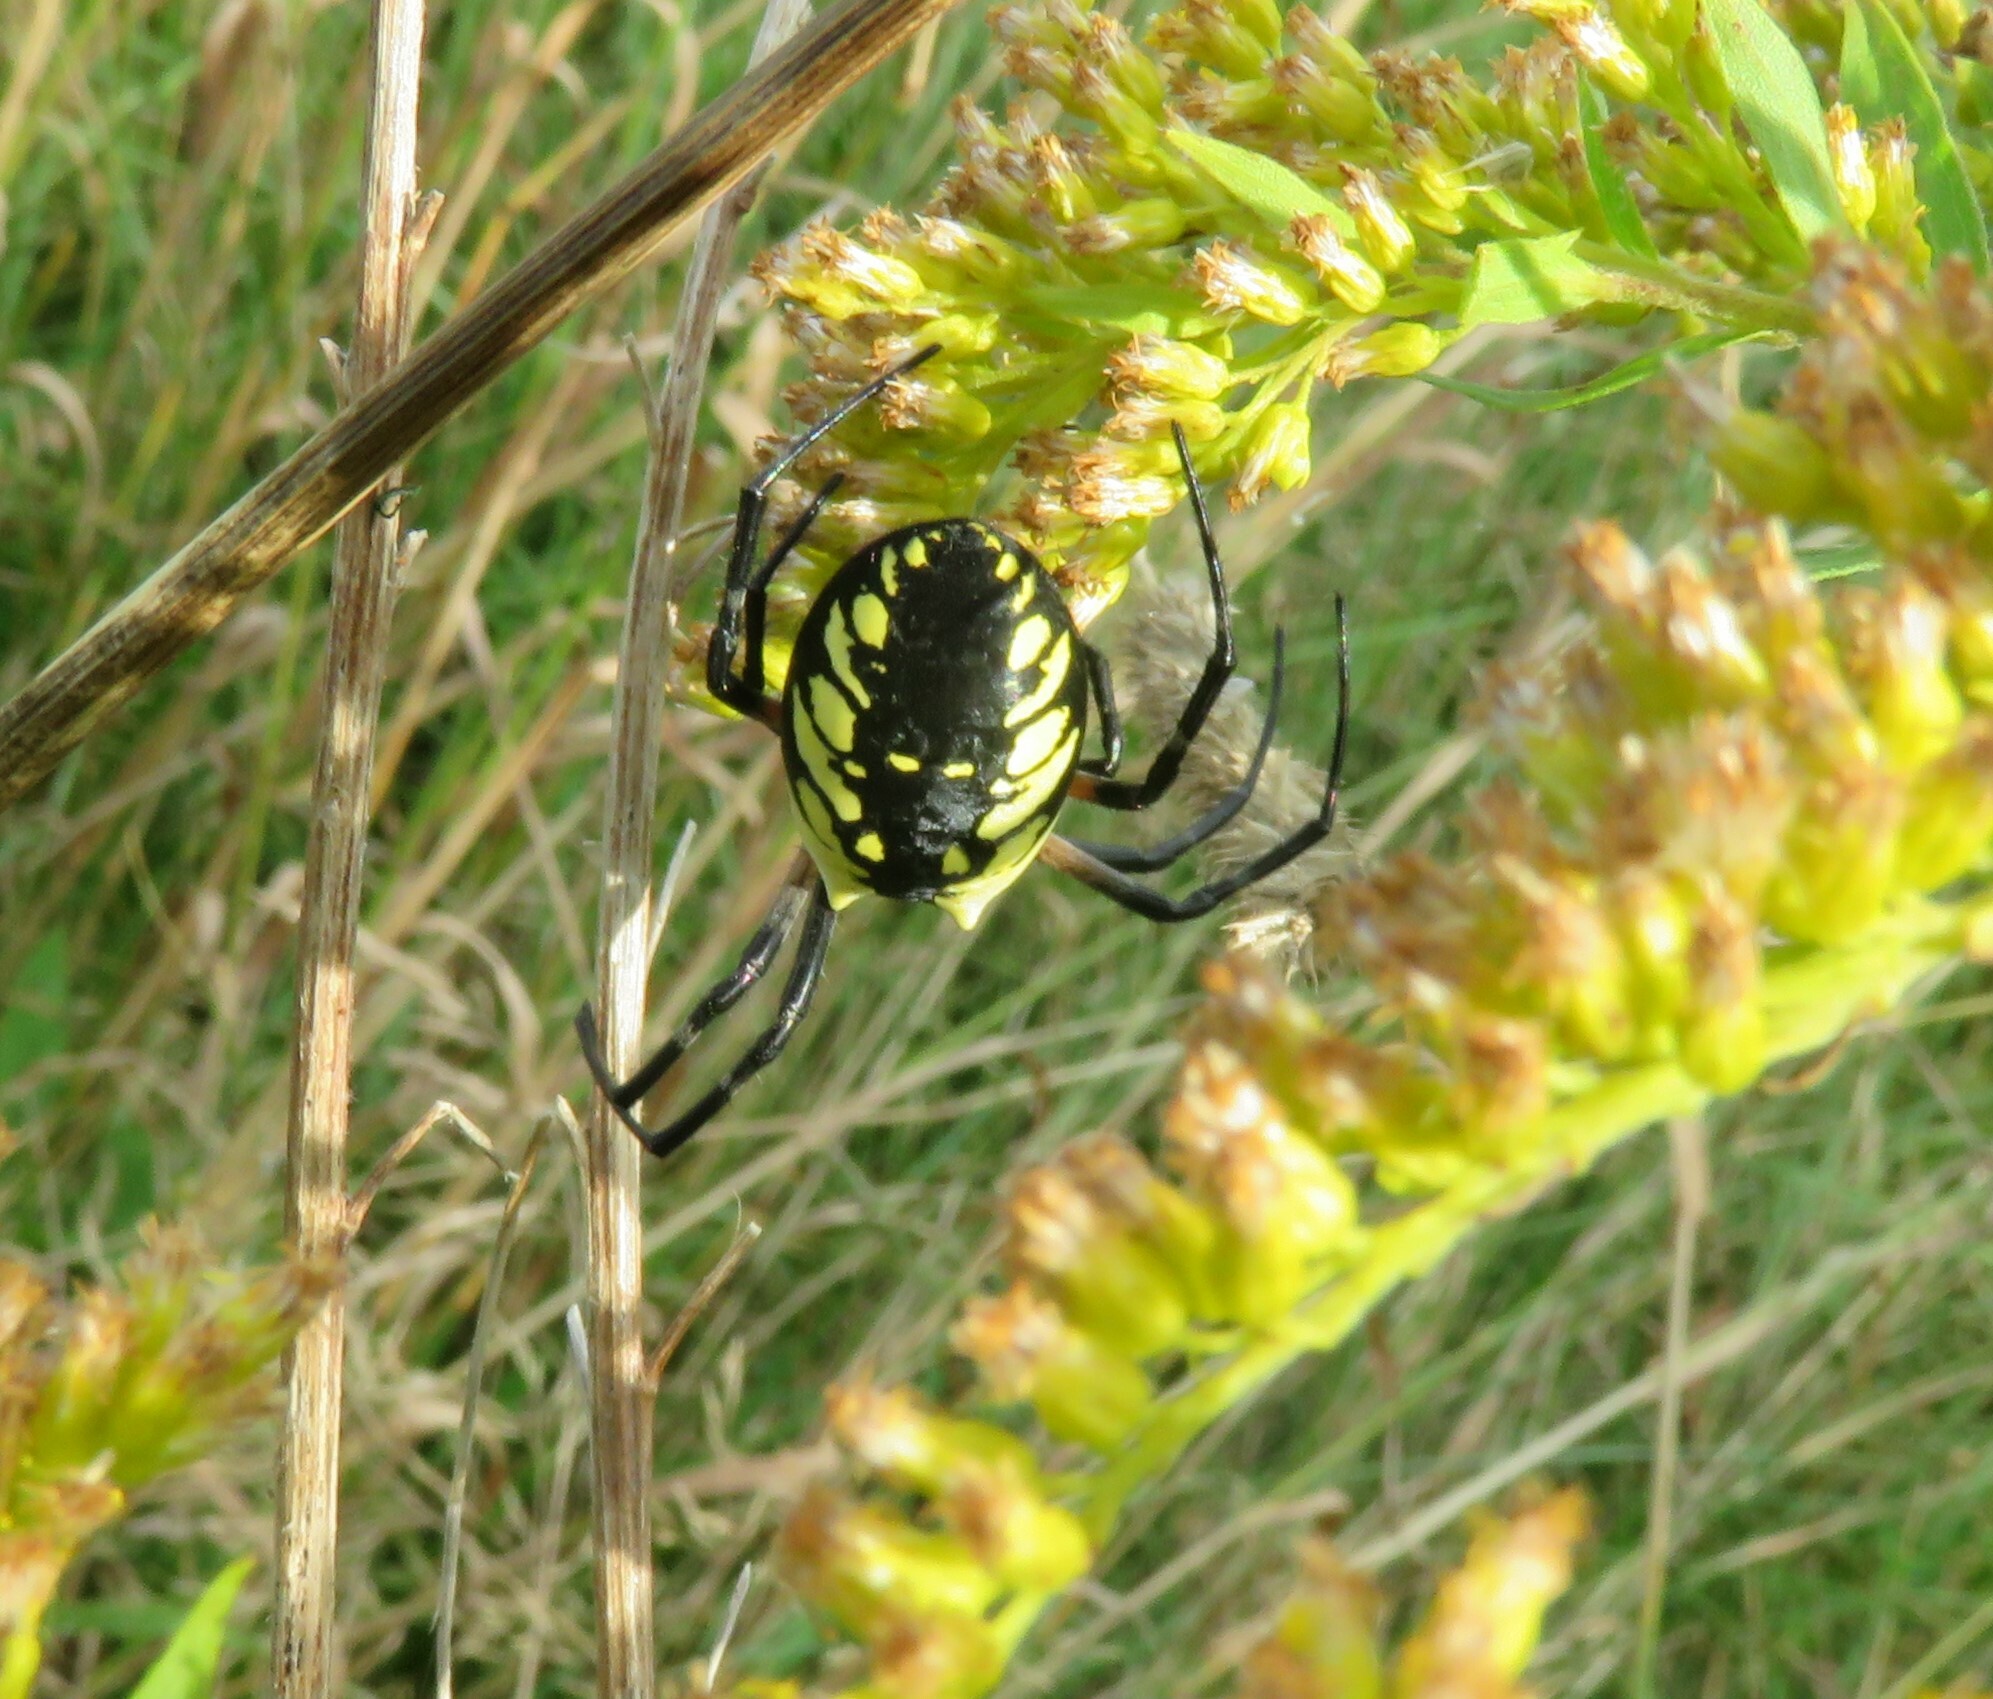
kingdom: Animalia
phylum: Arthropoda
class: Arachnida
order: Araneae
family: Araneidae
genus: Argiope
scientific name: Argiope aurantia
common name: Orb weavers
